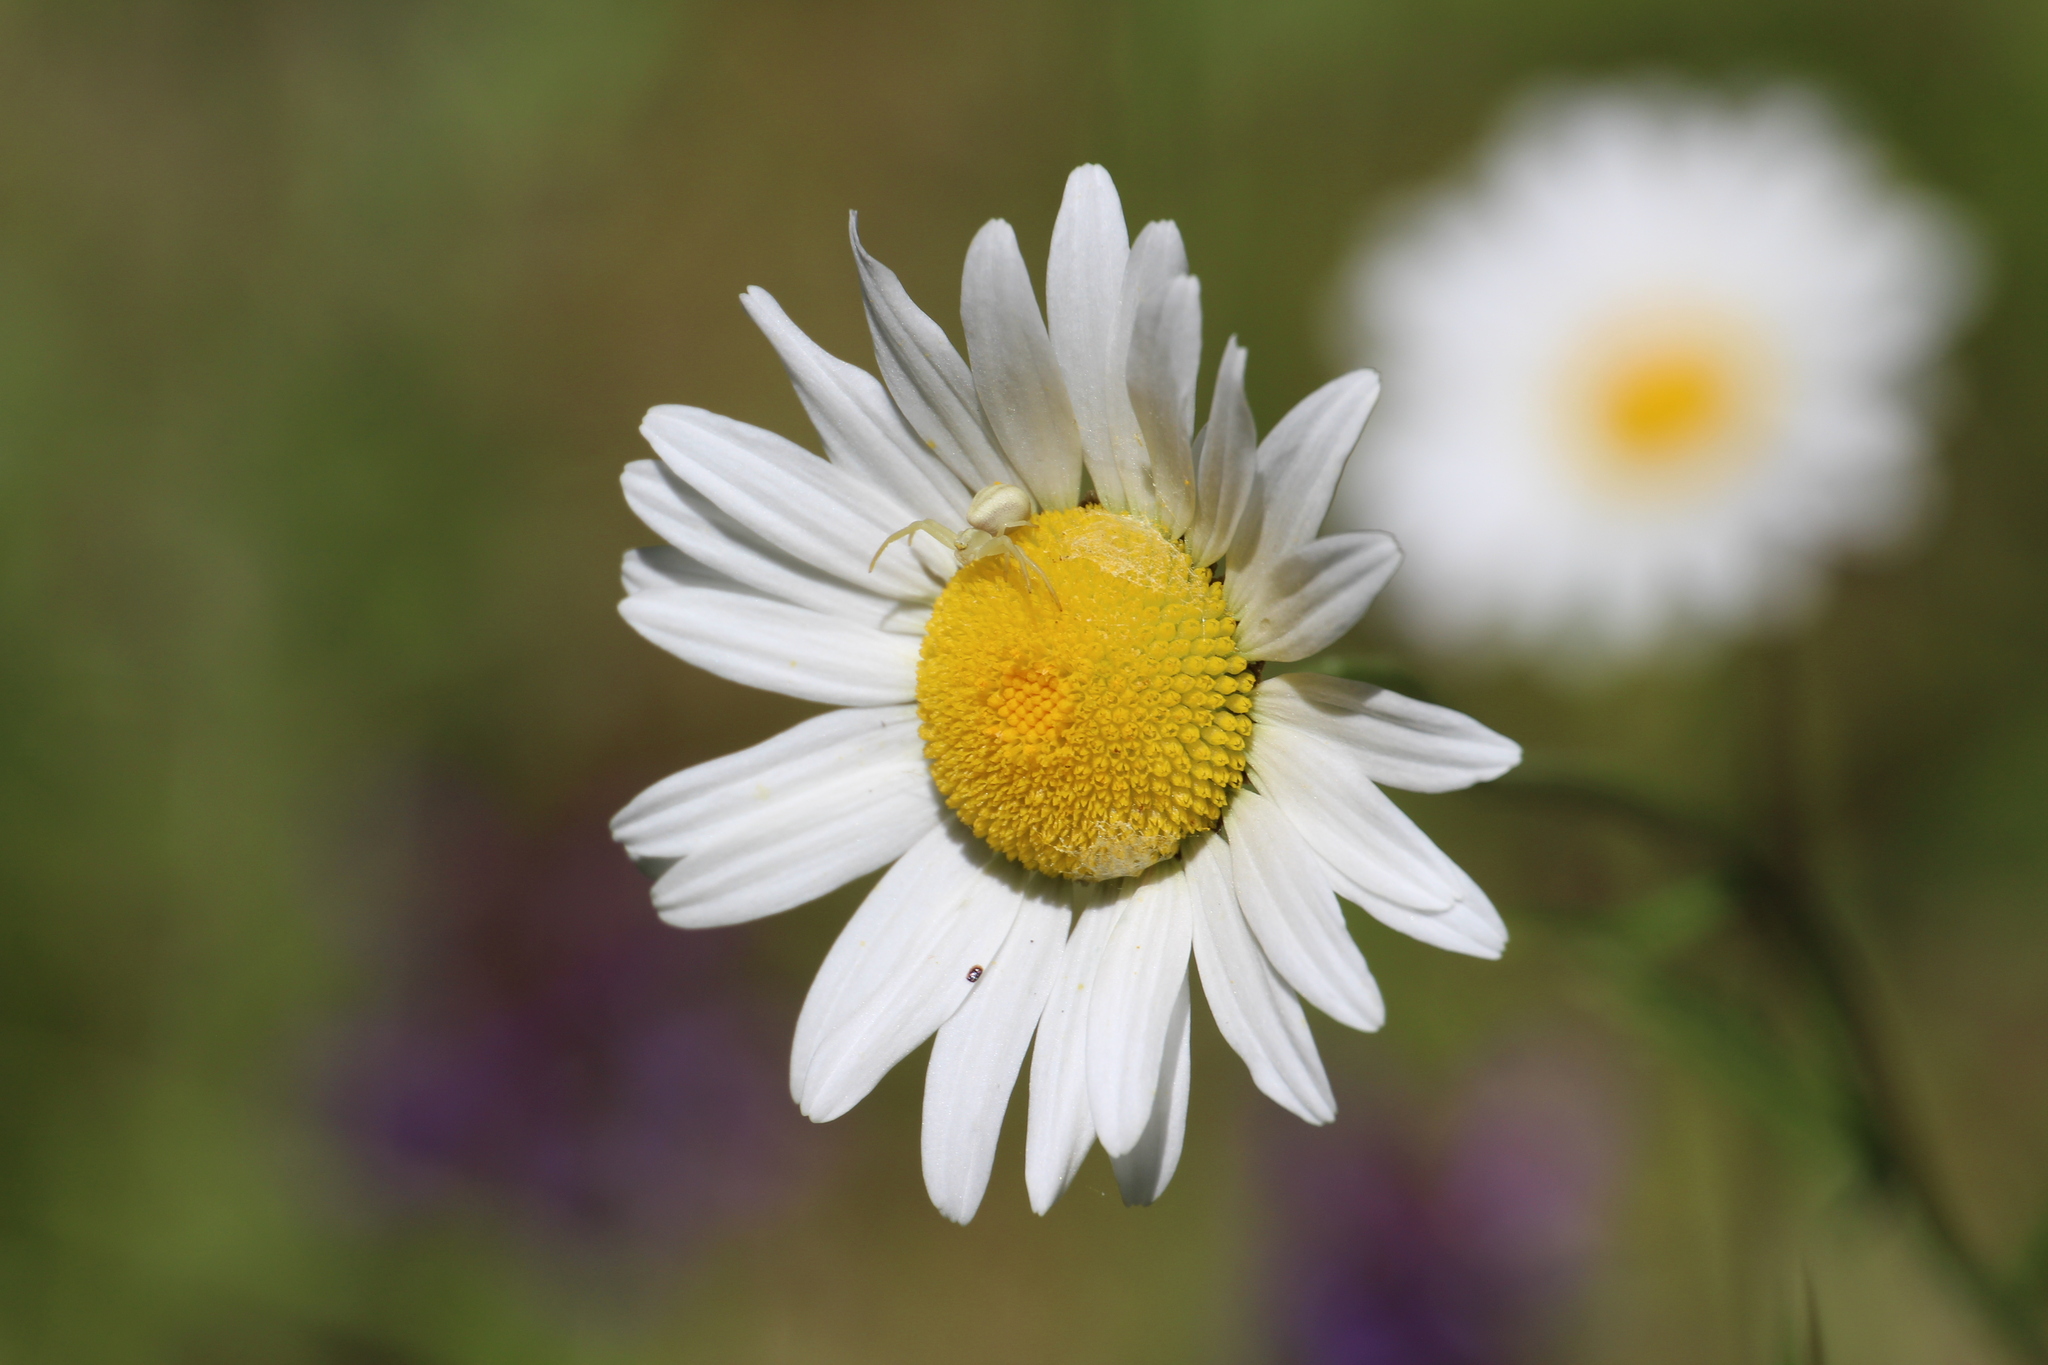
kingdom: Plantae
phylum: Tracheophyta
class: Magnoliopsida
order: Asterales
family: Asteraceae
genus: Leucanthemum
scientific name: Leucanthemum vulgare
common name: Oxeye daisy
